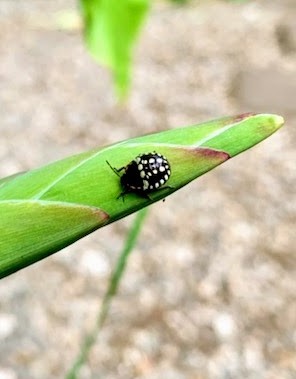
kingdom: Animalia
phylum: Arthropoda
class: Insecta
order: Hemiptera
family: Pentatomidae
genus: Nezara
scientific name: Nezara viridula
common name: Southern green stink bug
